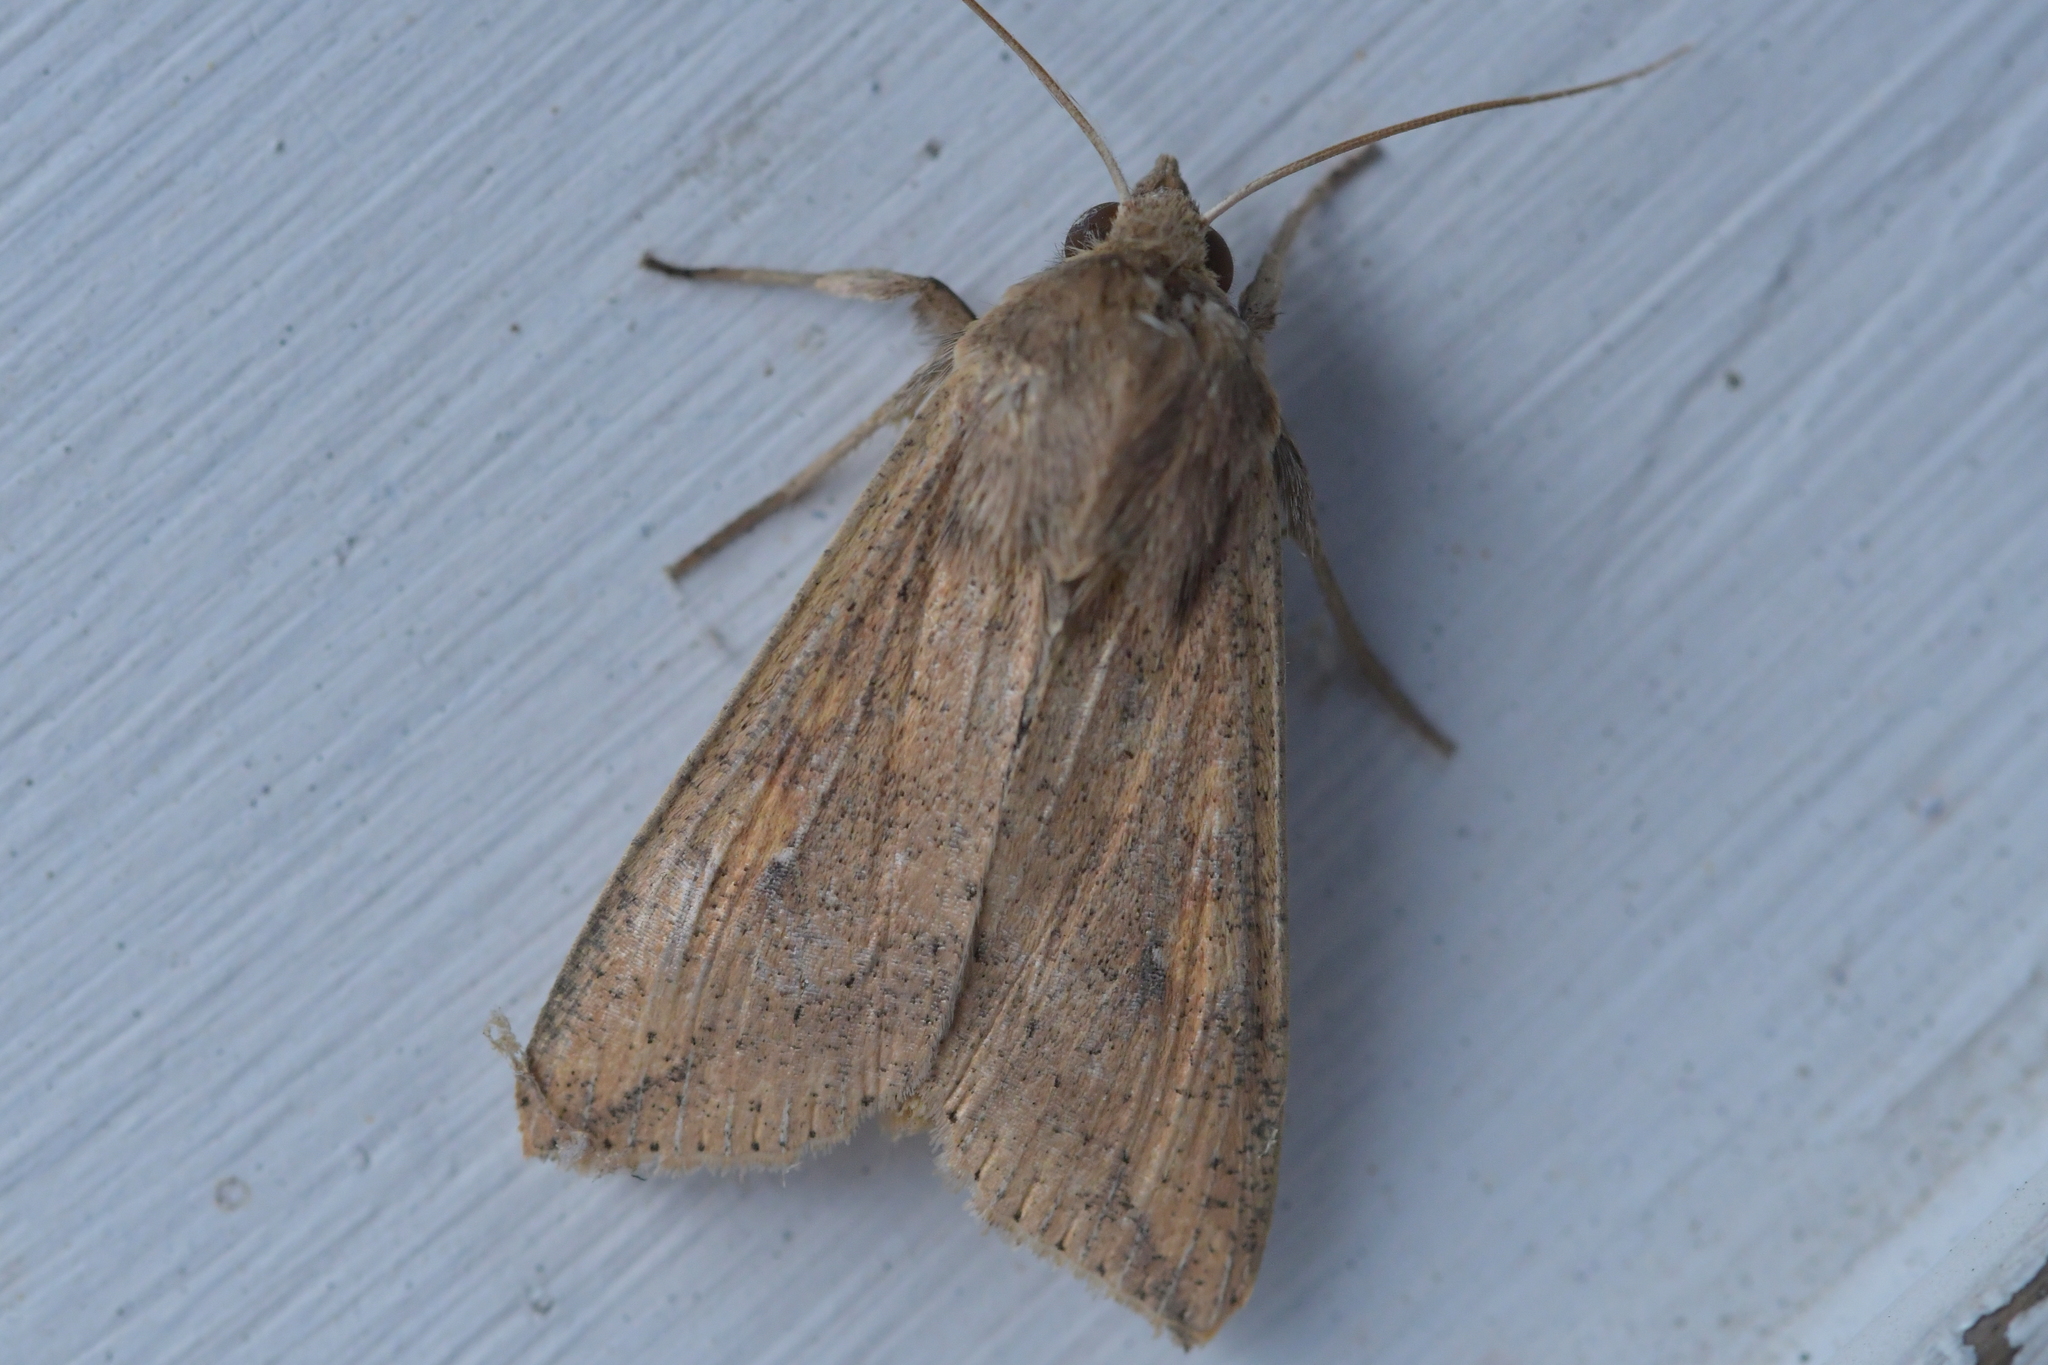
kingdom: Animalia
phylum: Arthropoda
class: Insecta
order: Lepidoptera
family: Noctuidae
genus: Mythimna
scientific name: Mythimna separata
